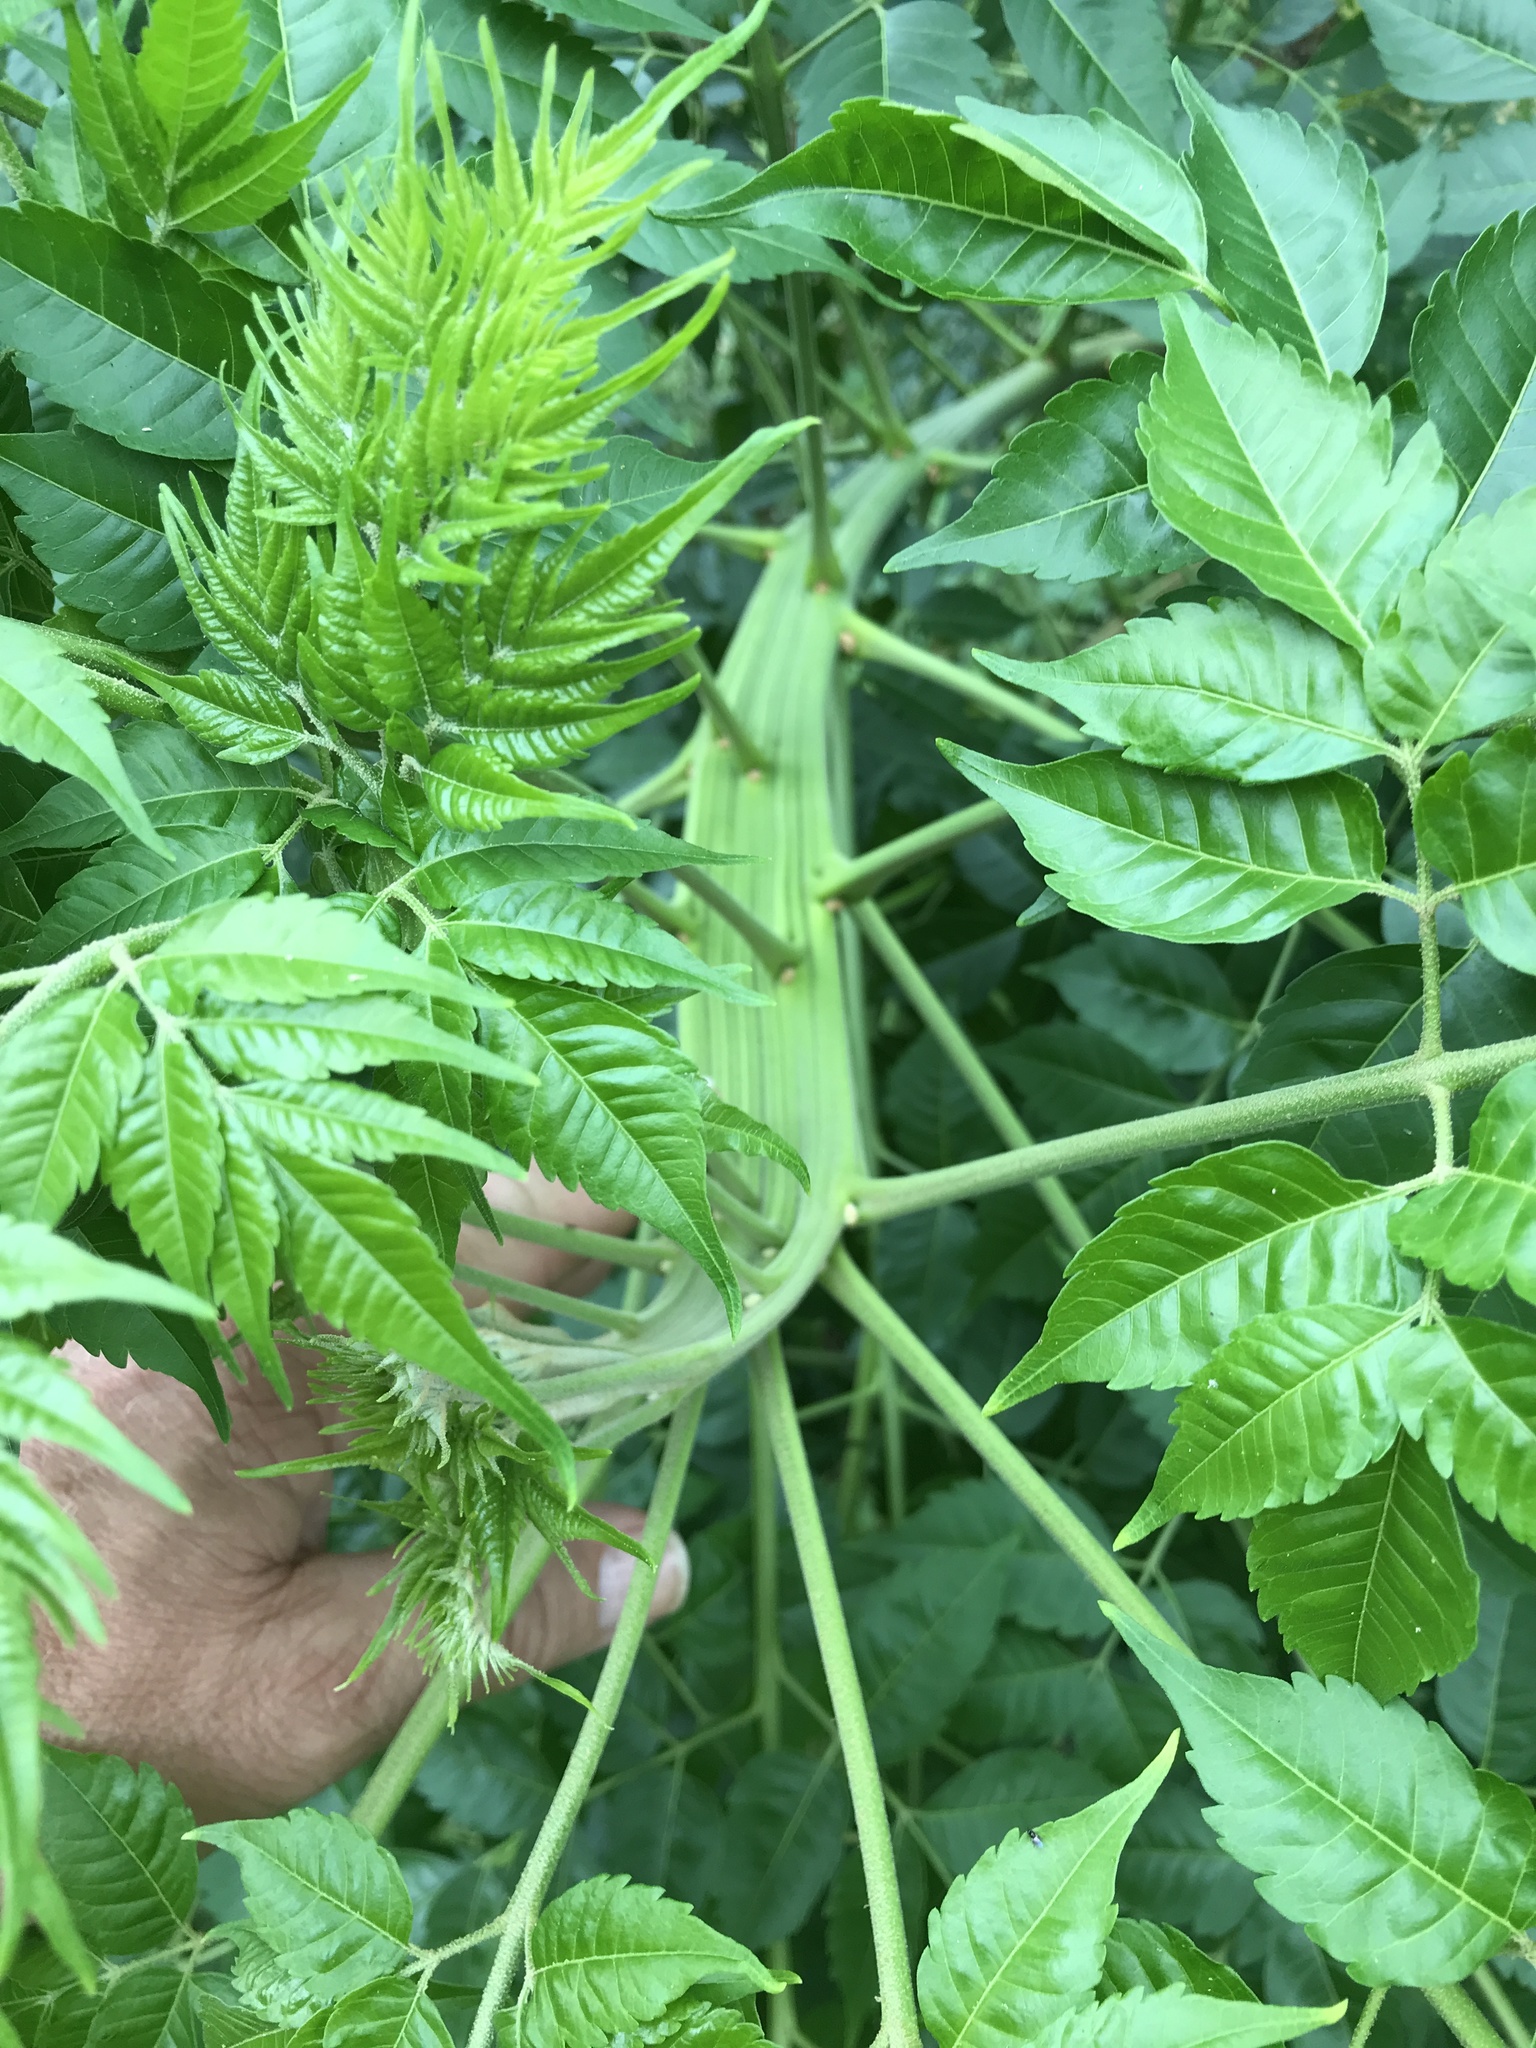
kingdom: Plantae
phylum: Tracheophyta
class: Magnoliopsida
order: Sapindales
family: Meliaceae
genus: Melia
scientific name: Melia azedarach
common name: Chinaberrytree
